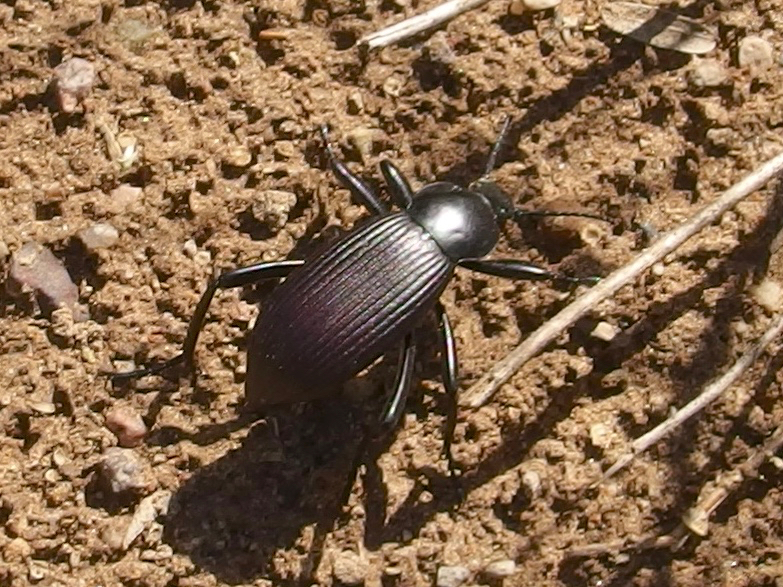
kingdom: Animalia
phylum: Arthropoda
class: Insecta
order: Coleoptera
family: Tenebrionidae
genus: Eleodes
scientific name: Eleodes obscura
